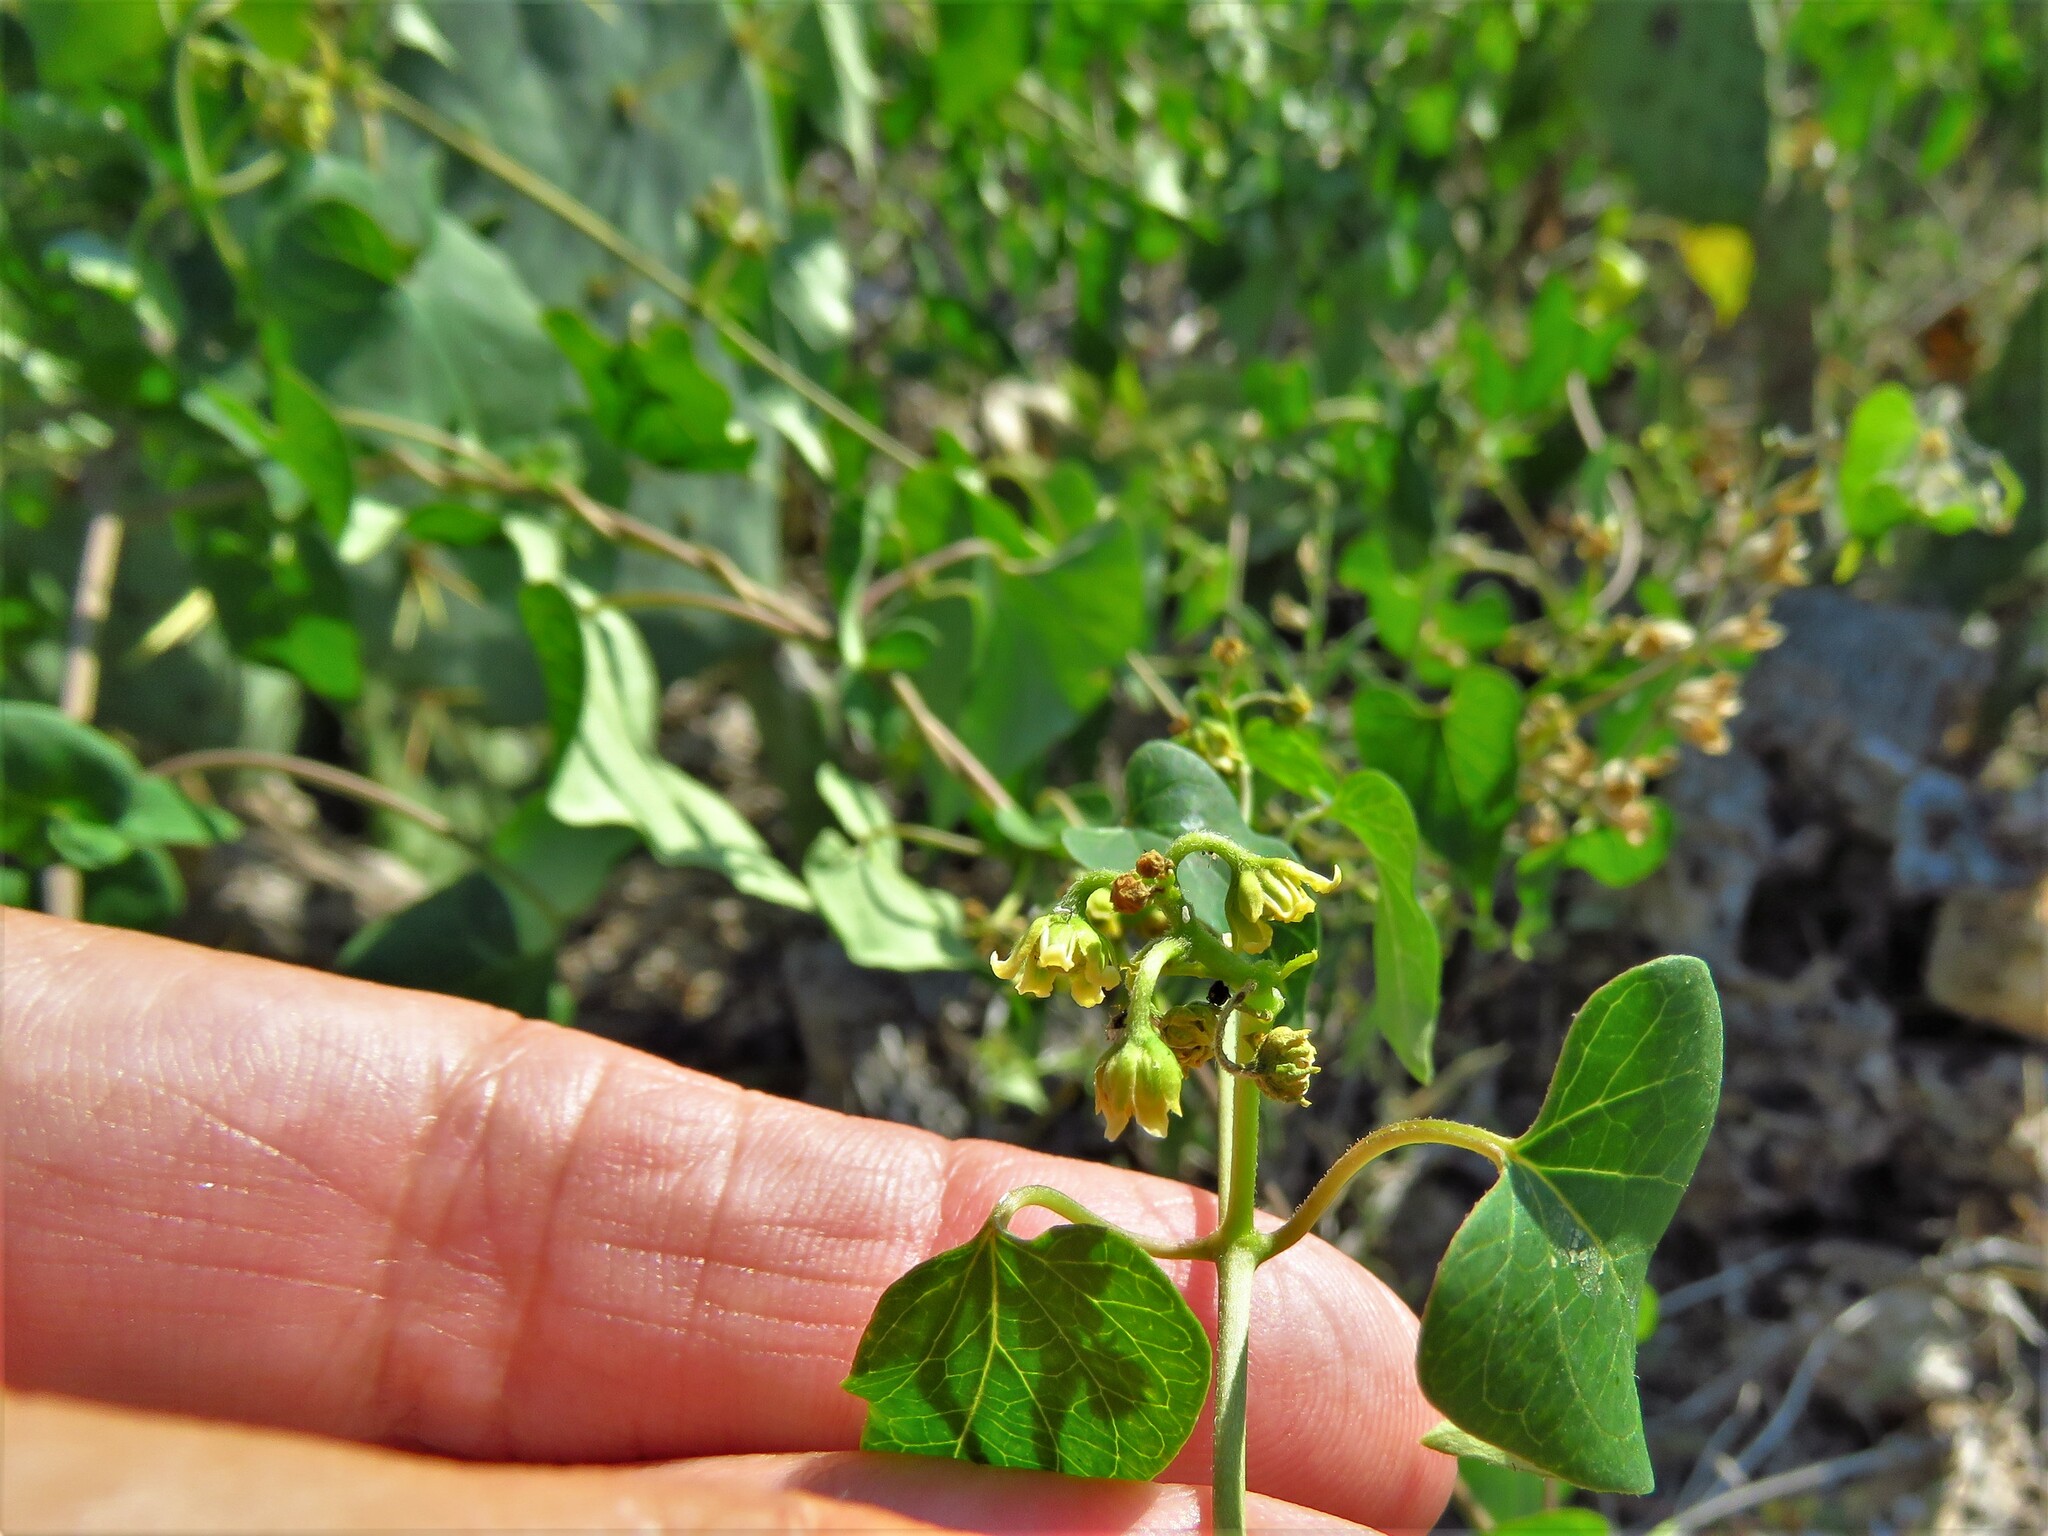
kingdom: Plantae
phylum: Tracheophyta
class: Magnoliopsida
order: Gentianales
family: Apocynaceae
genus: Cynanchum
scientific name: Cynanchum racemosum
